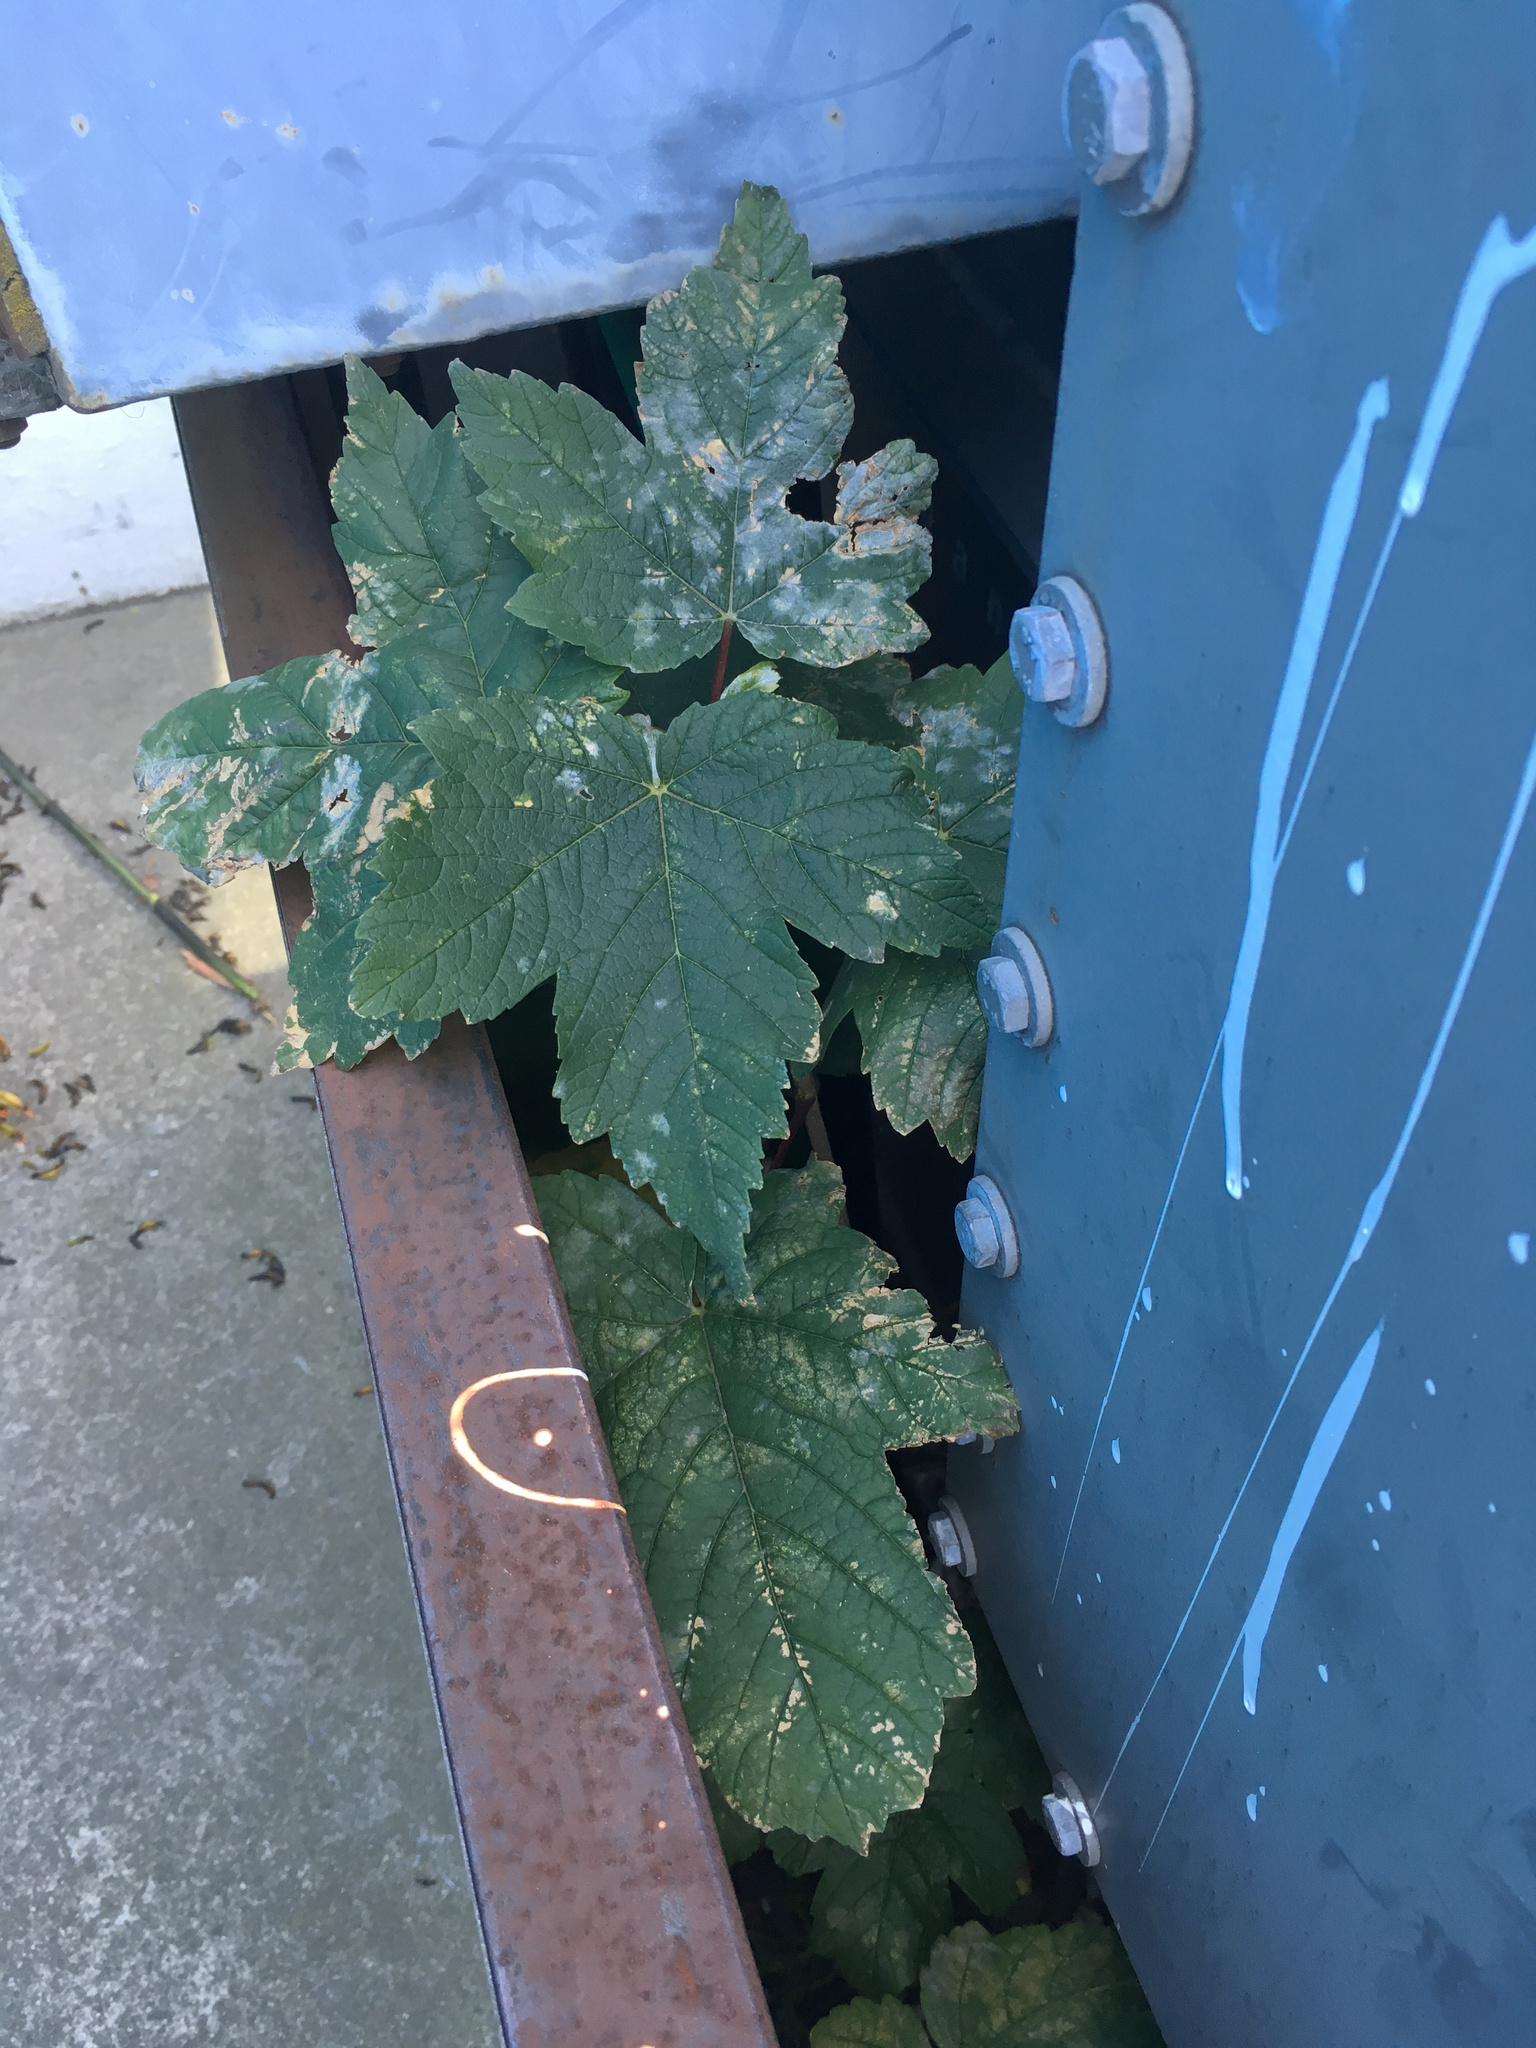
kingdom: Plantae
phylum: Tracheophyta
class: Magnoliopsida
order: Sapindales
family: Sapindaceae
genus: Acer
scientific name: Acer pseudoplatanus
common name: Sycamore
